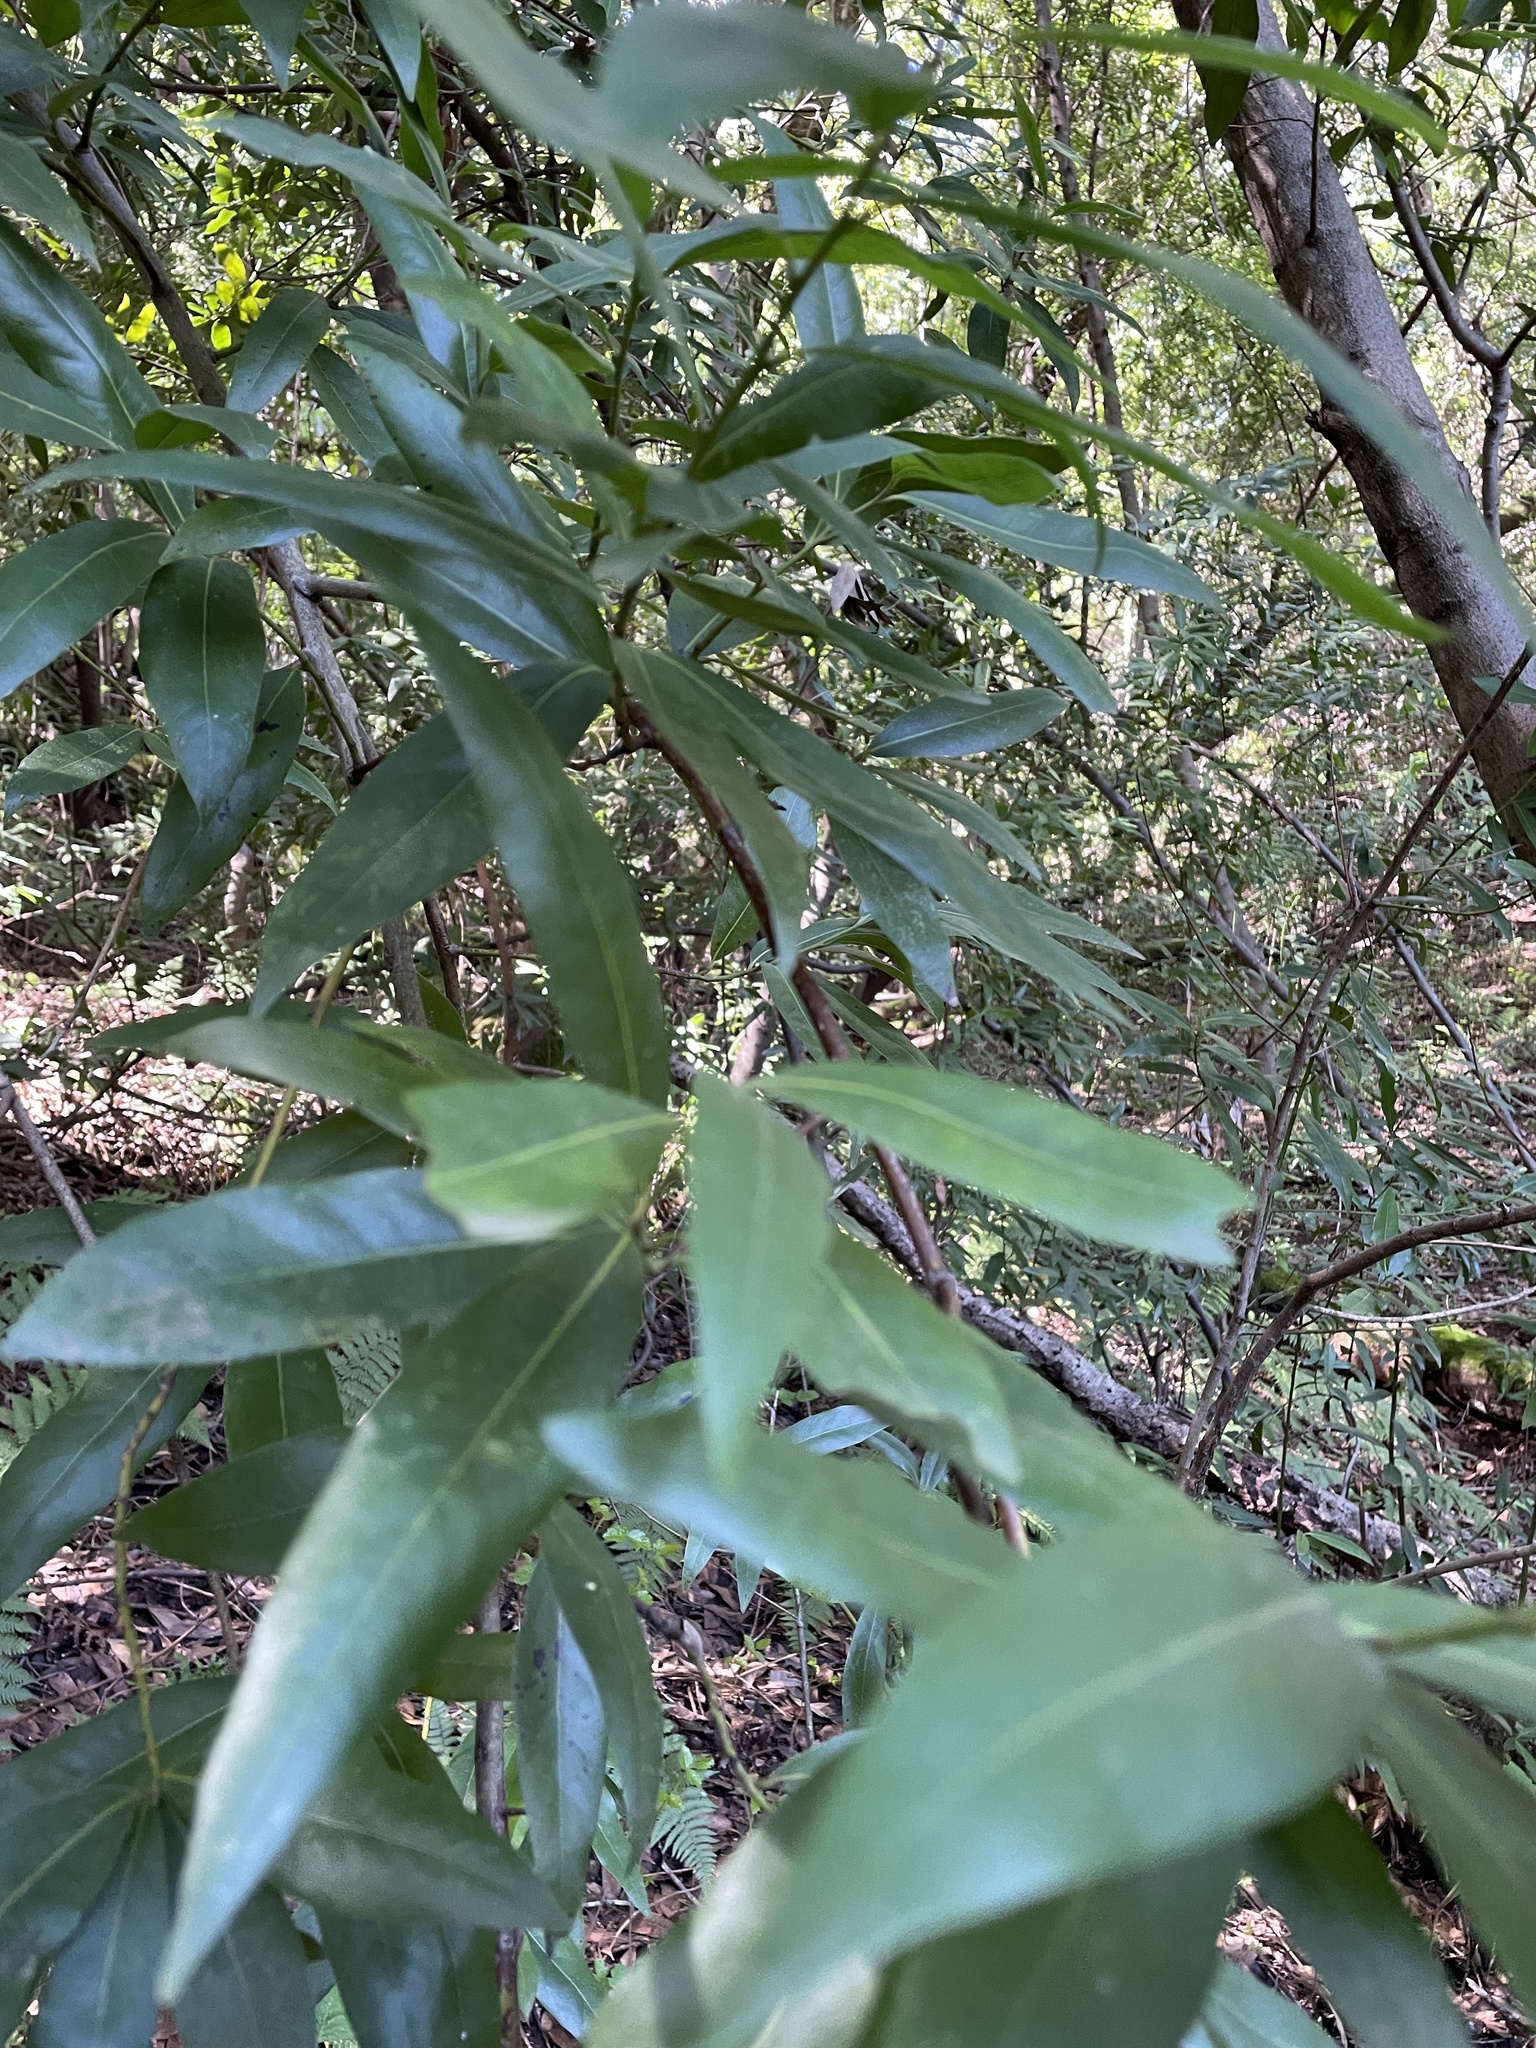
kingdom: Plantae
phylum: Tracheophyta
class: Magnoliopsida
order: Laurales
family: Lauraceae
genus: Umbellularia
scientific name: Umbellularia californica
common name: California bay
